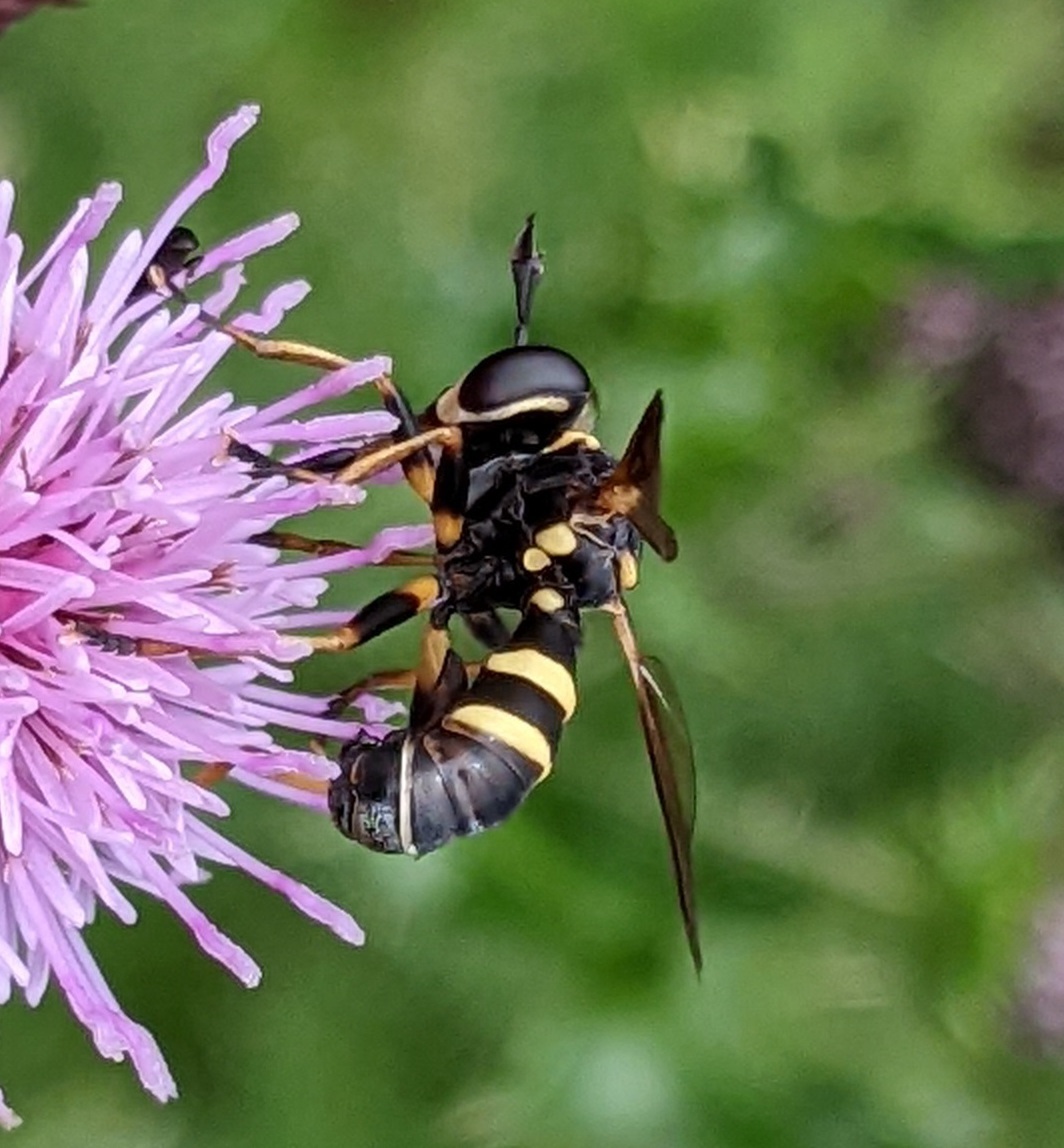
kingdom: Animalia
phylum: Arthropoda
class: Insecta
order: Diptera
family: Conopidae
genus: Conops
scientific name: Conops flavipes
